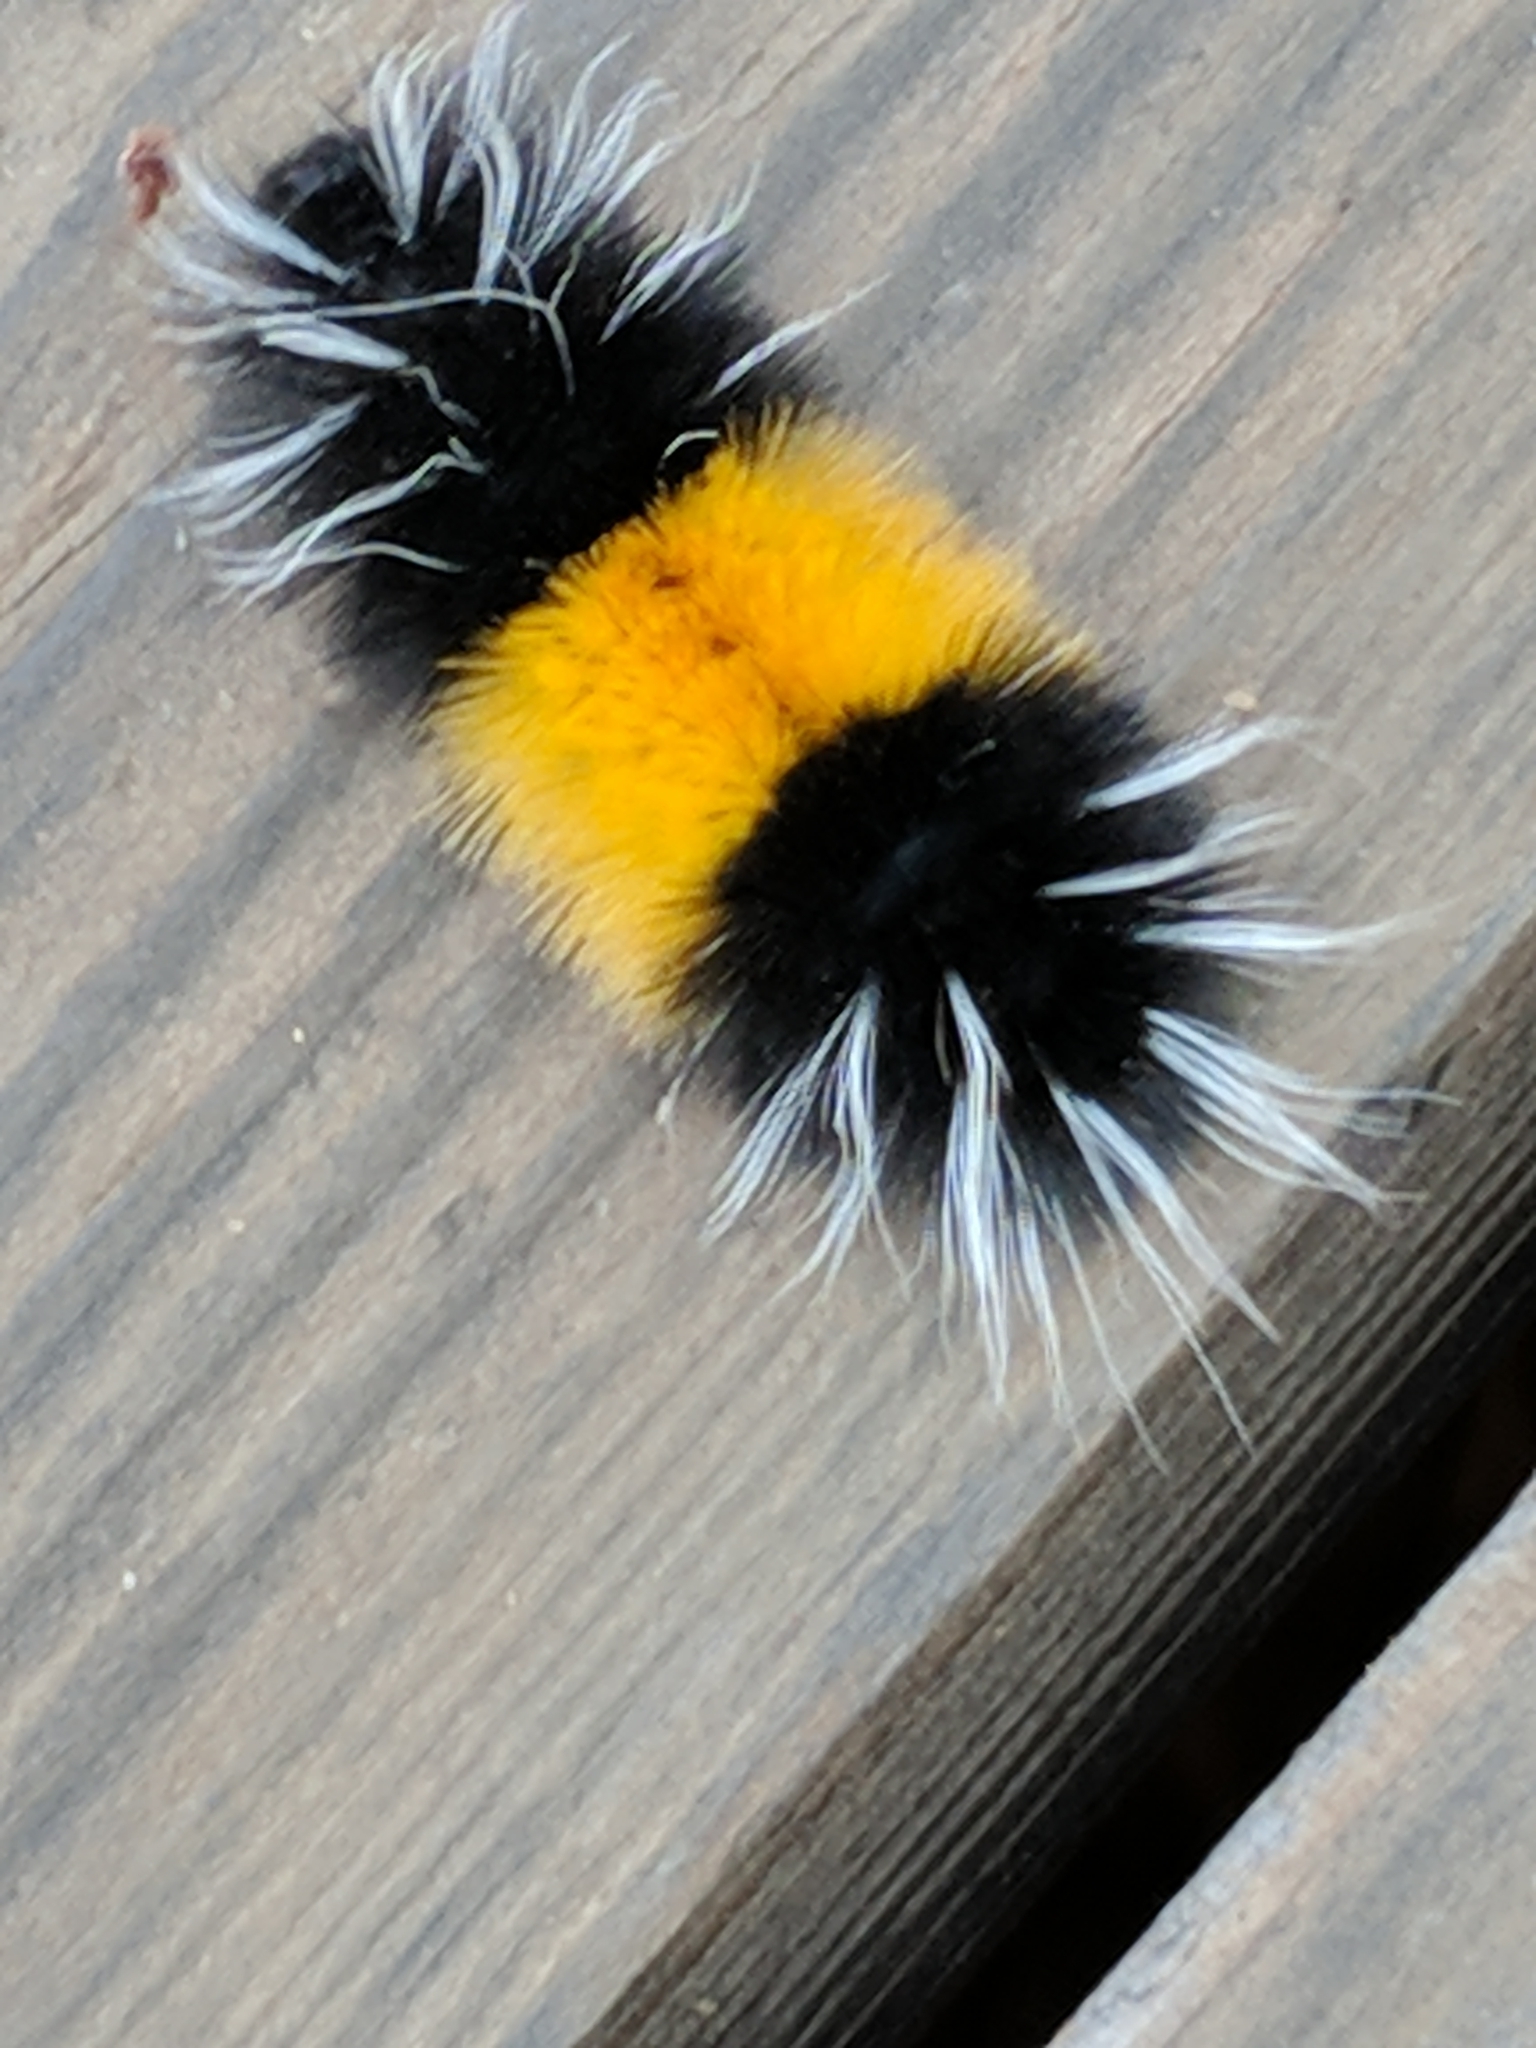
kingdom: Animalia
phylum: Arthropoda
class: Insecta
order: Lepidoptera
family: Erebidae
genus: Lophocampa
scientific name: Lophocampa maculata
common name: Spotted tussock moth
